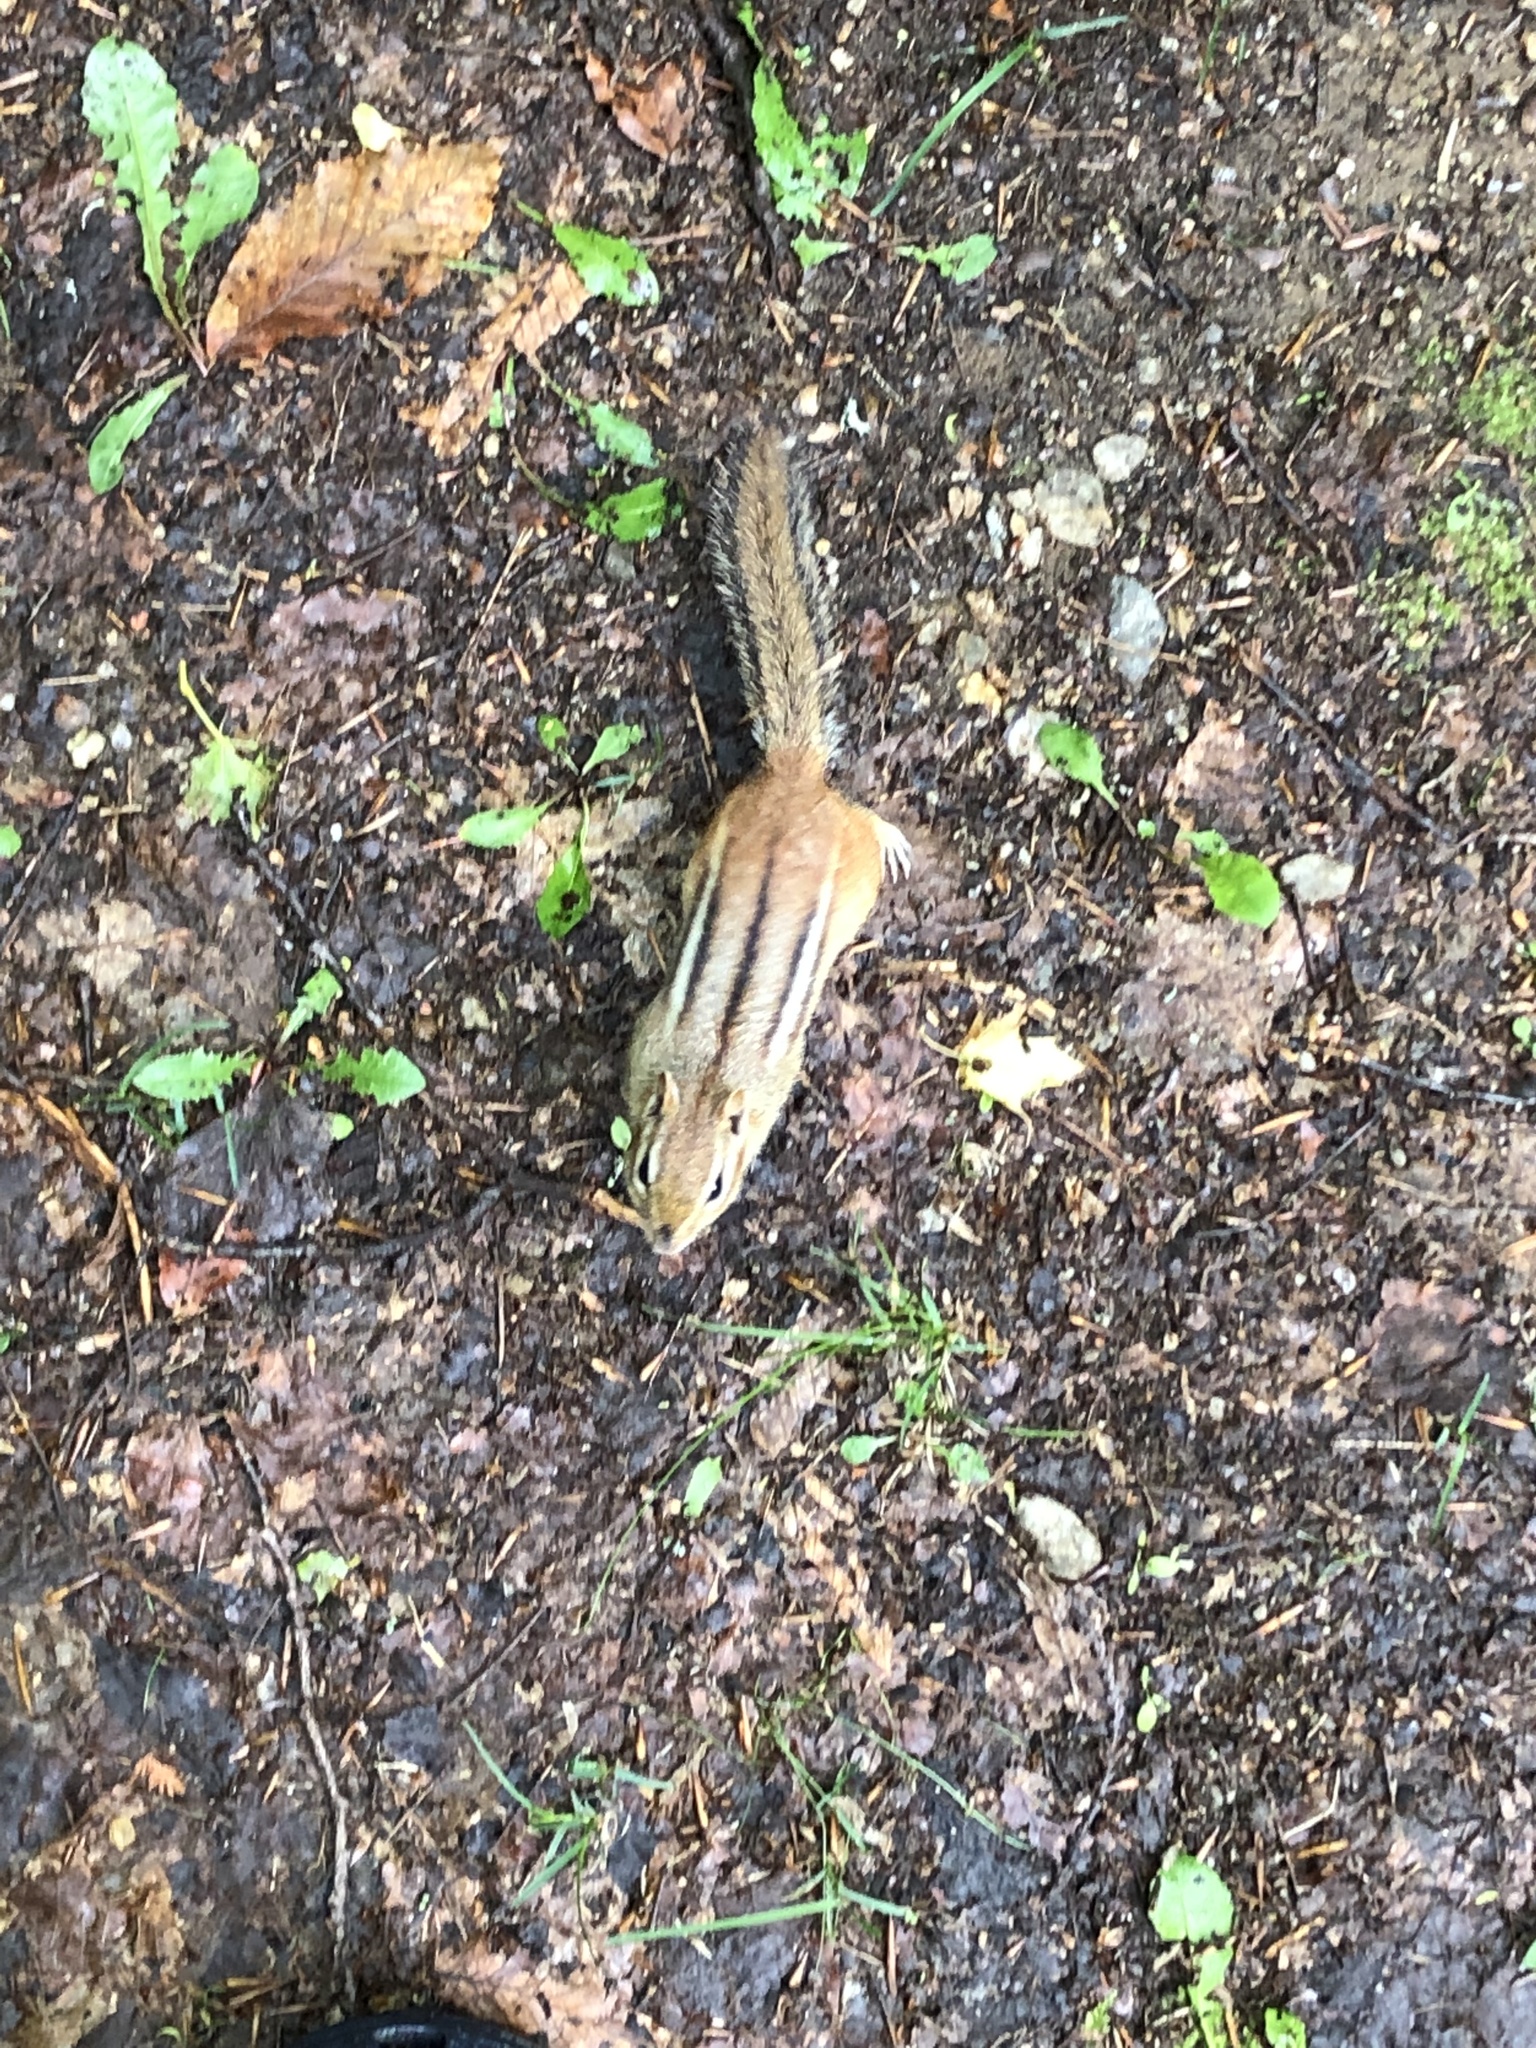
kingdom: Animalia
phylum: Chordata
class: Mammalia
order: Rodentia
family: Sciuridae
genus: Tamias
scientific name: Tamias striatus
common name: Eastern chipmunk
